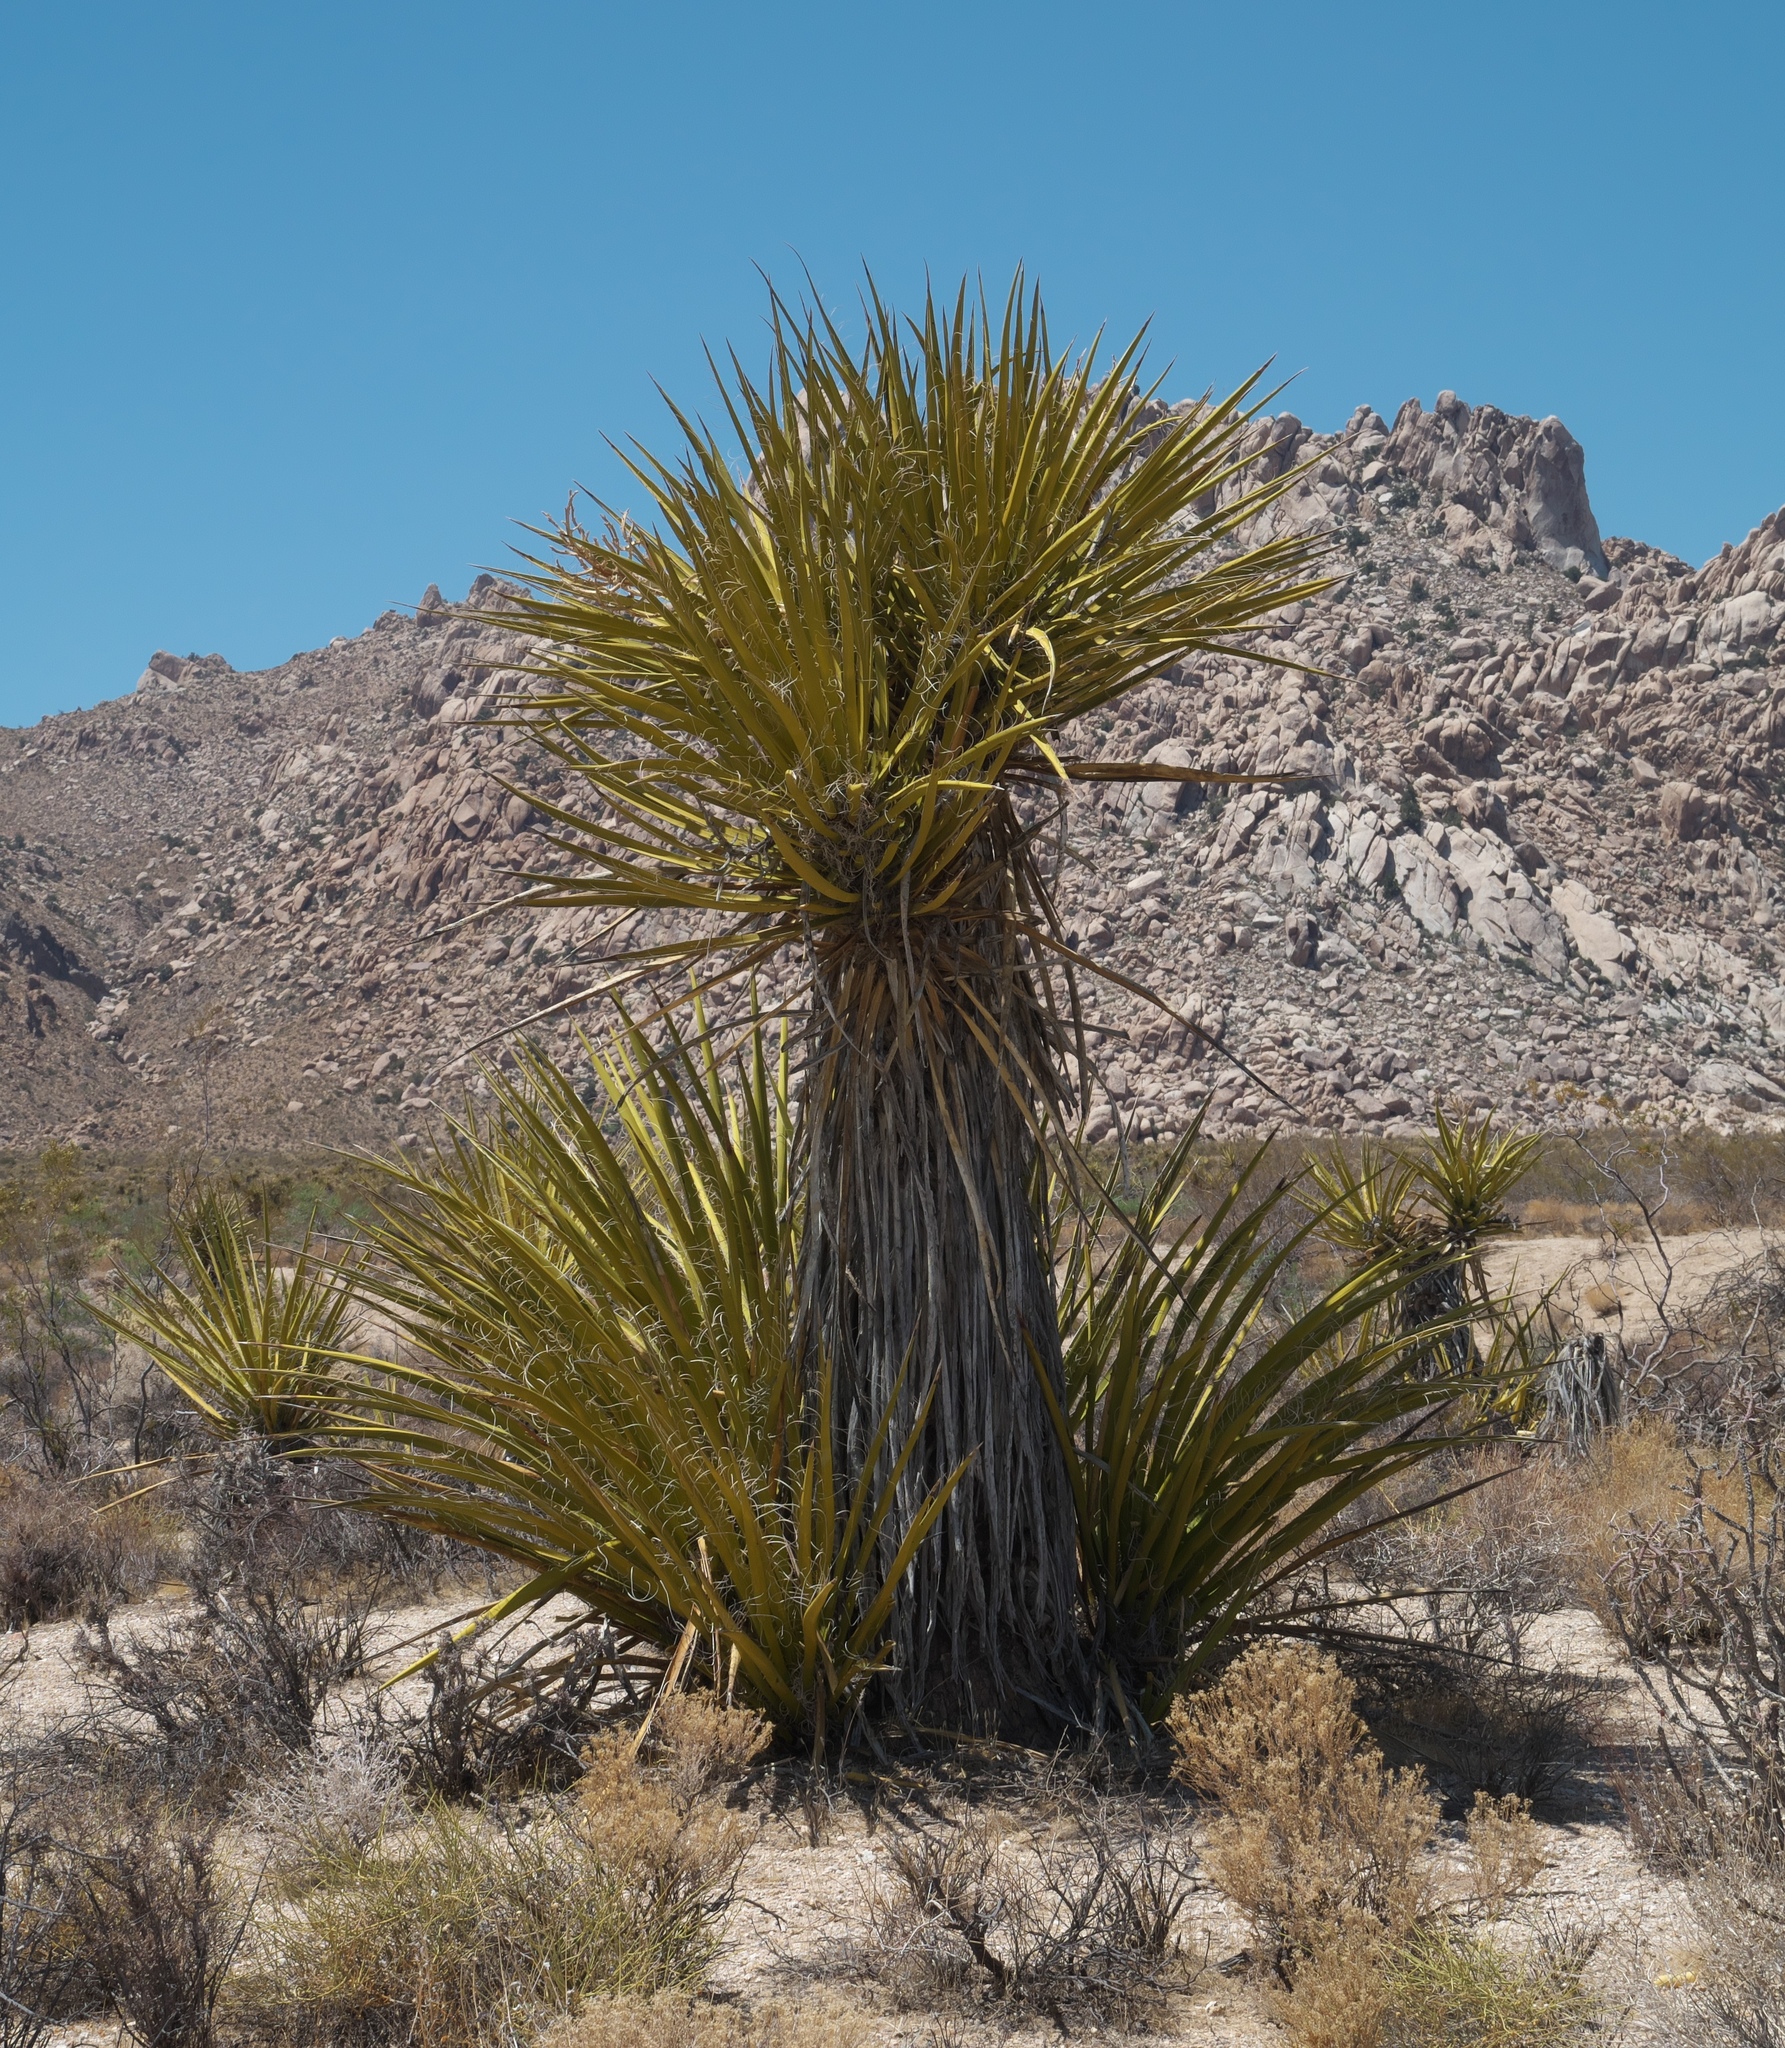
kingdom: Plantae
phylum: Tracheophyta
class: Liliopsida
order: Asparagales
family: Asparagaceae
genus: Yucca
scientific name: Yucca schidigera
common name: Mojave yucca
